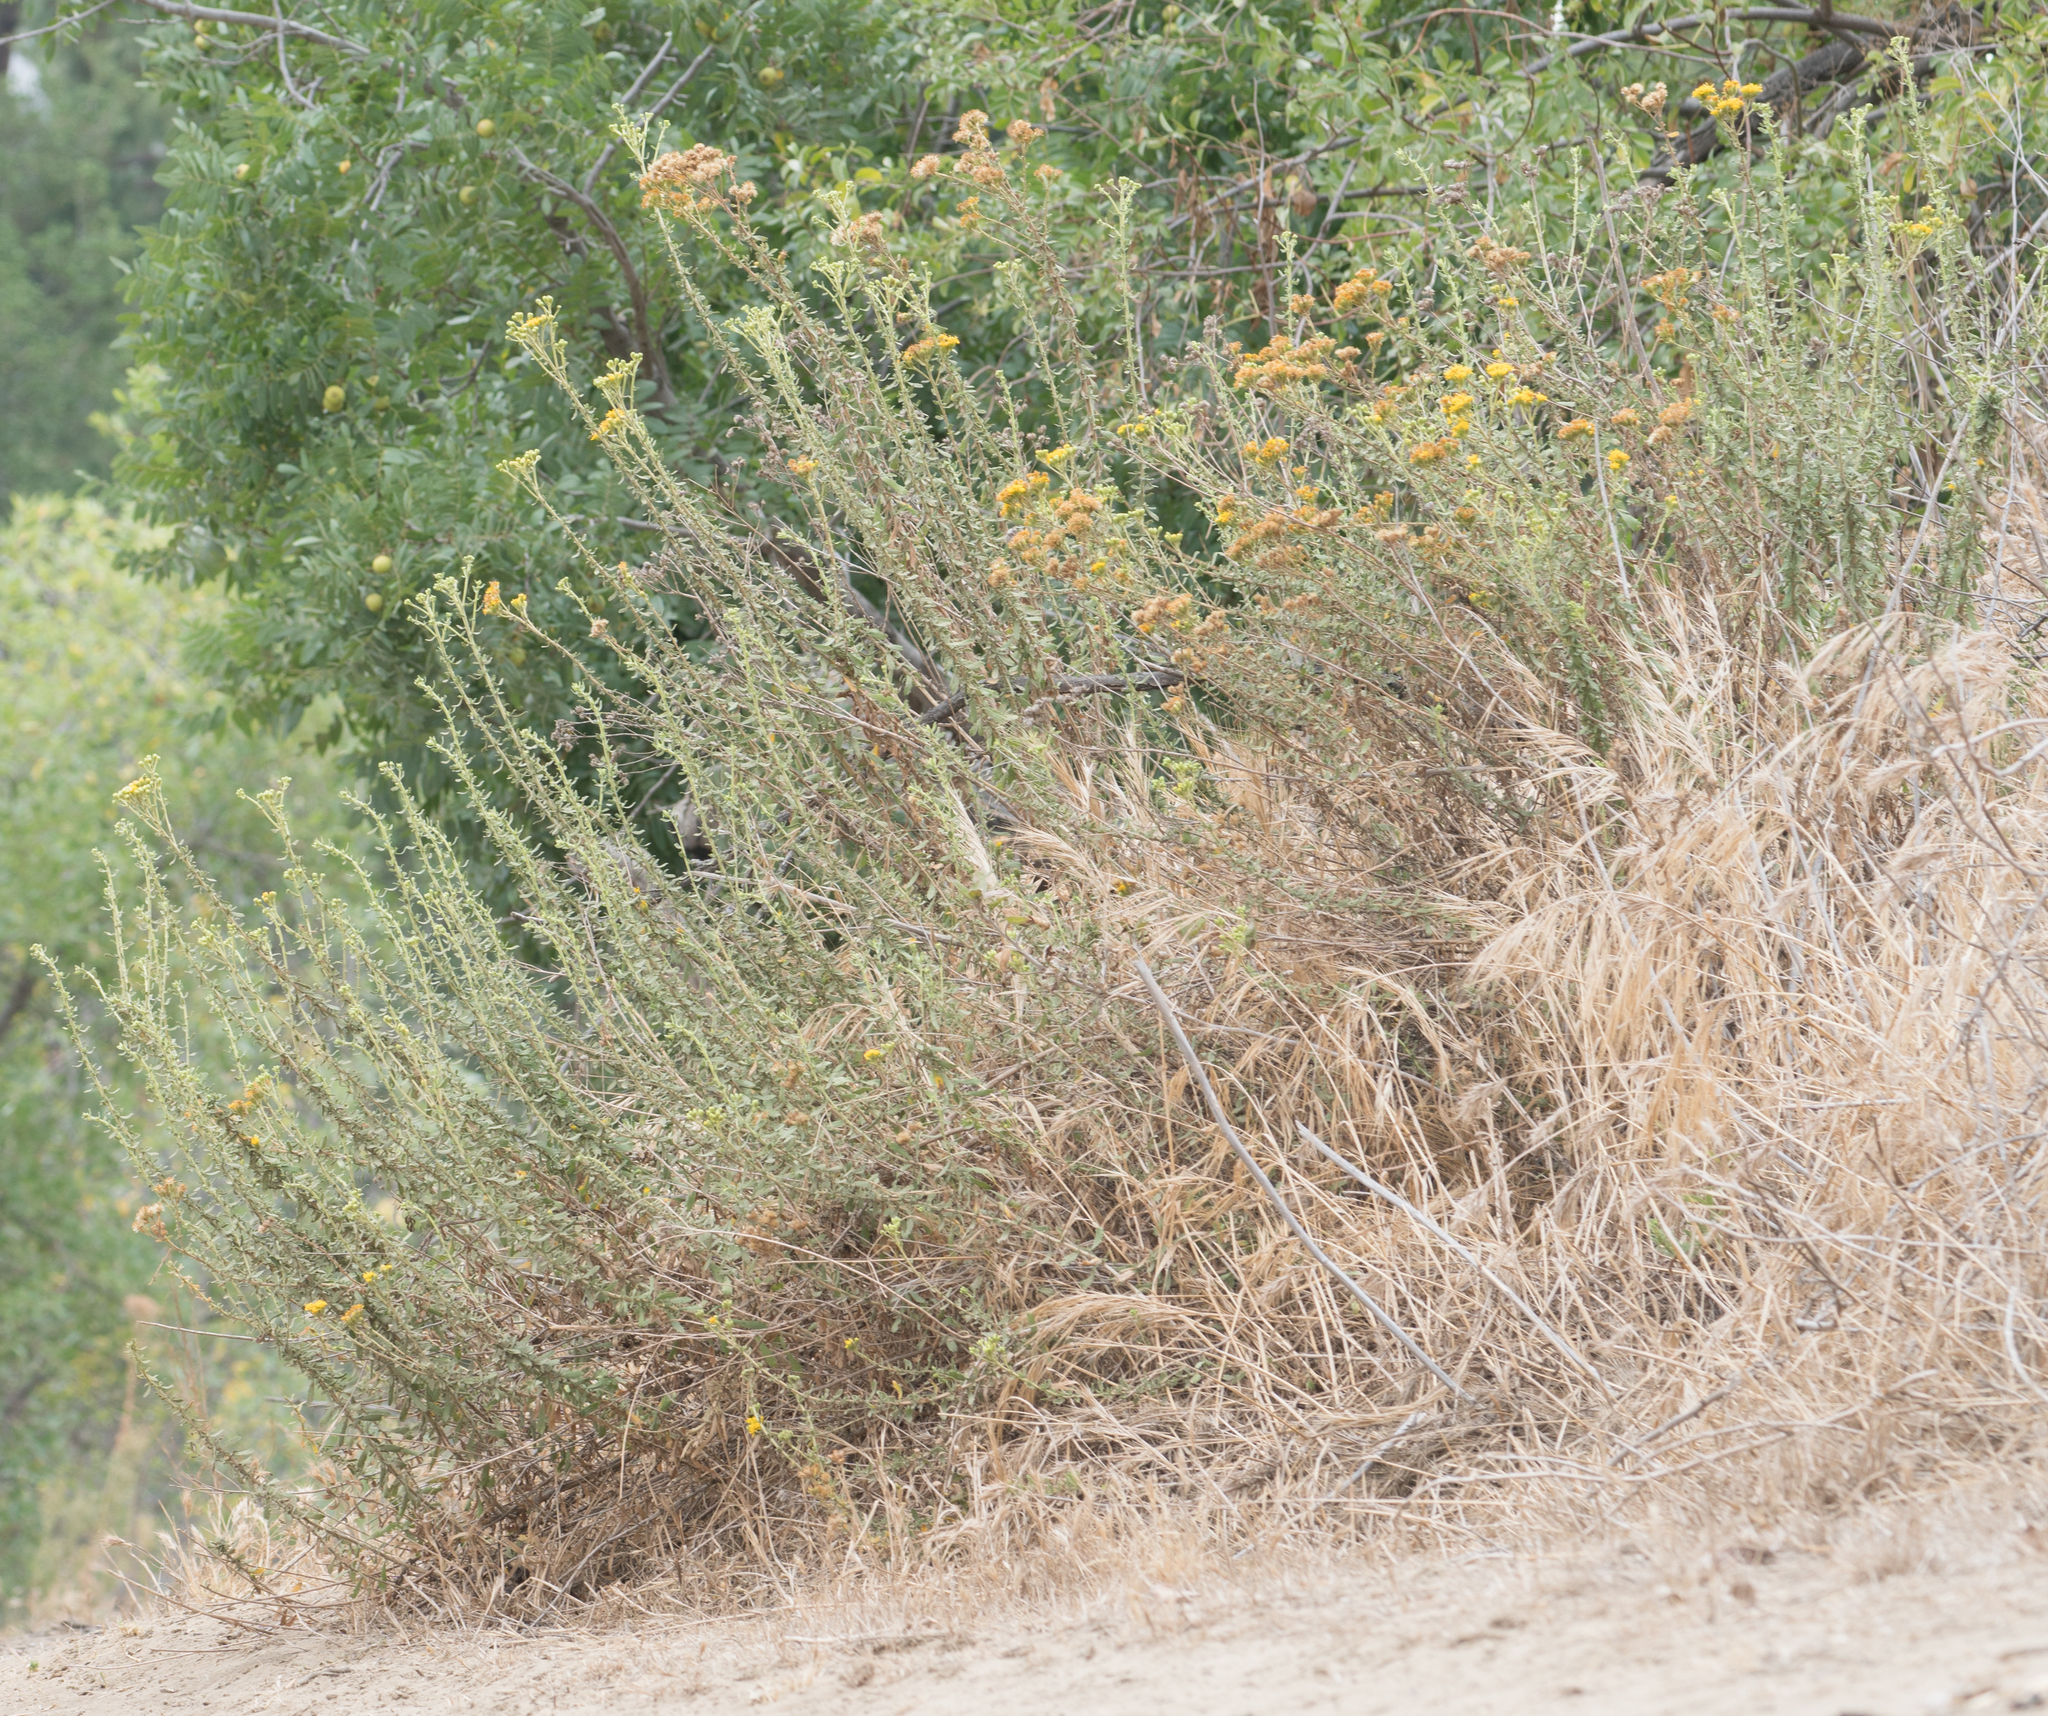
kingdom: Plantae
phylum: Tracheophyta
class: Magnoliopsida
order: Asterales
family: Asteraceae
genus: Isocoma
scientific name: Isocoma menziesii
